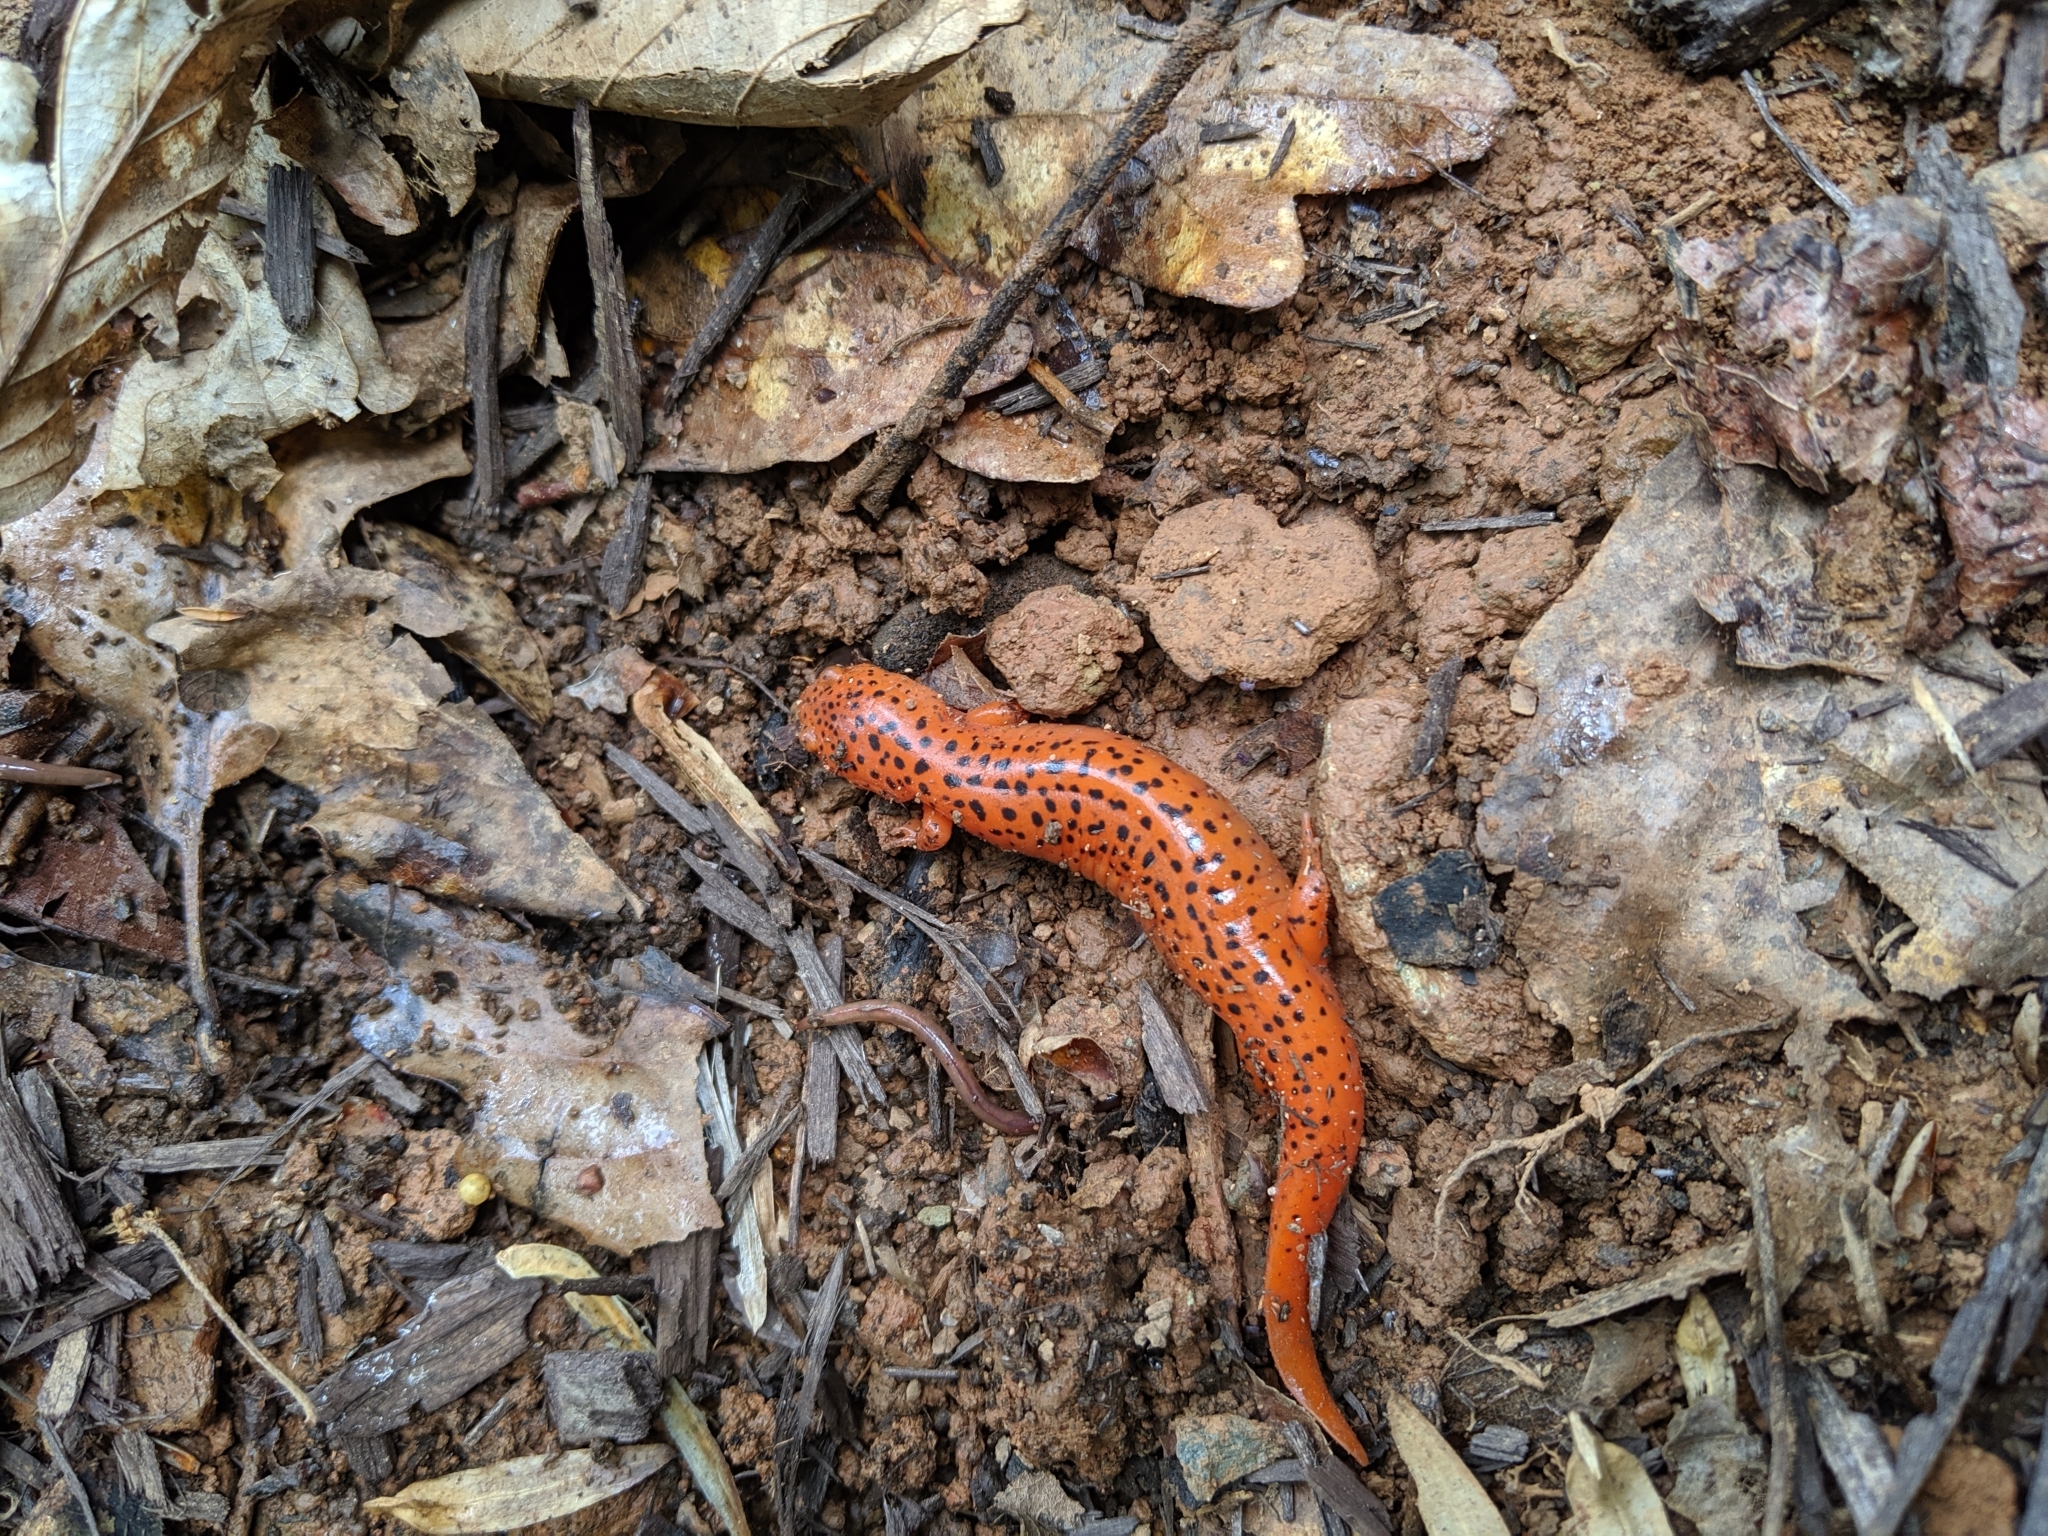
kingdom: Animalia
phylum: Chordata
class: Amphibia
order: Caudata
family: Plethodontidae
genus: Pseudotriton
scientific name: Pseudotriton ruber
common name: Red salamander
